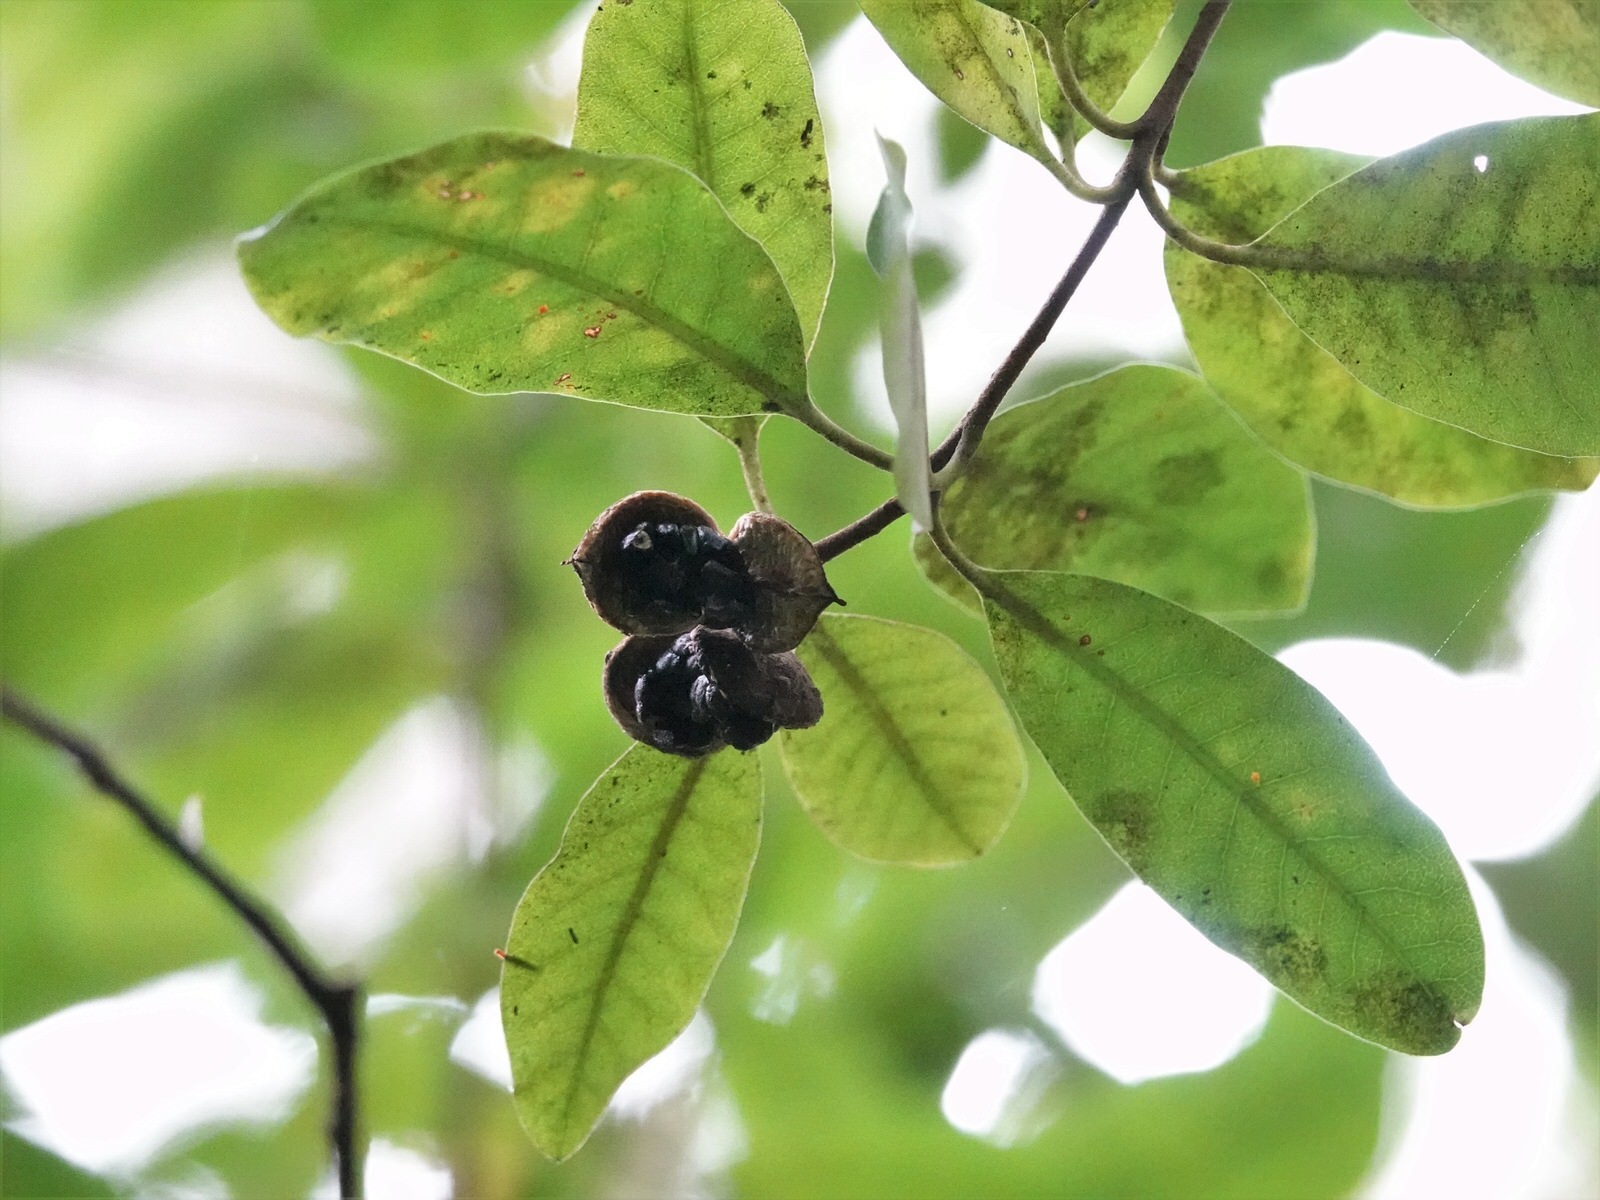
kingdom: Plantae
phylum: Tracheophyta
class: Magnoliopsida
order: Apiales
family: Pittosporaceae
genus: Pittosporum
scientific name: Pittosporum ellipticum
